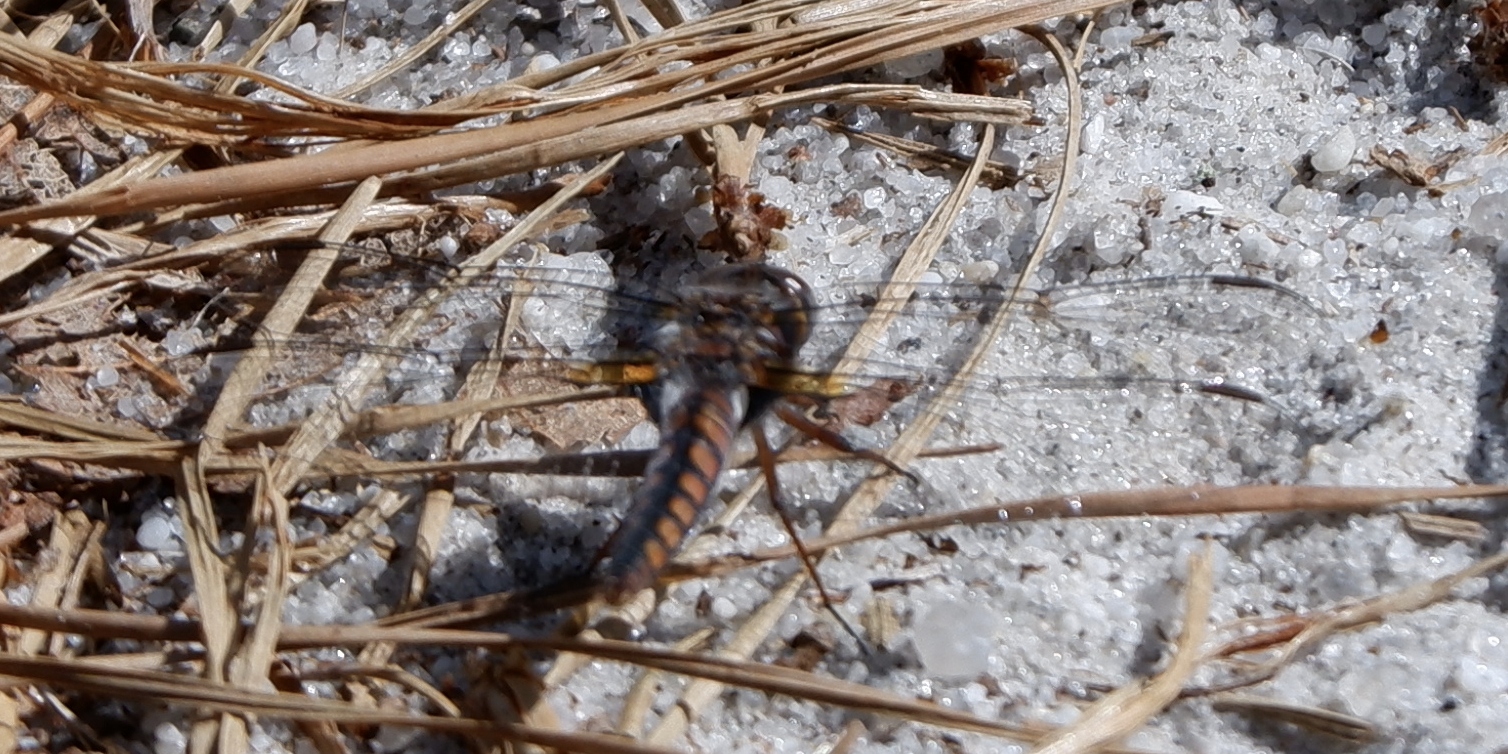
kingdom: Animalia
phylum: Arthropoda
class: Insecta
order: Odonata
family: Libellulidae
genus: Ladona
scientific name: Ladona deplanata
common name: Blue corporal
